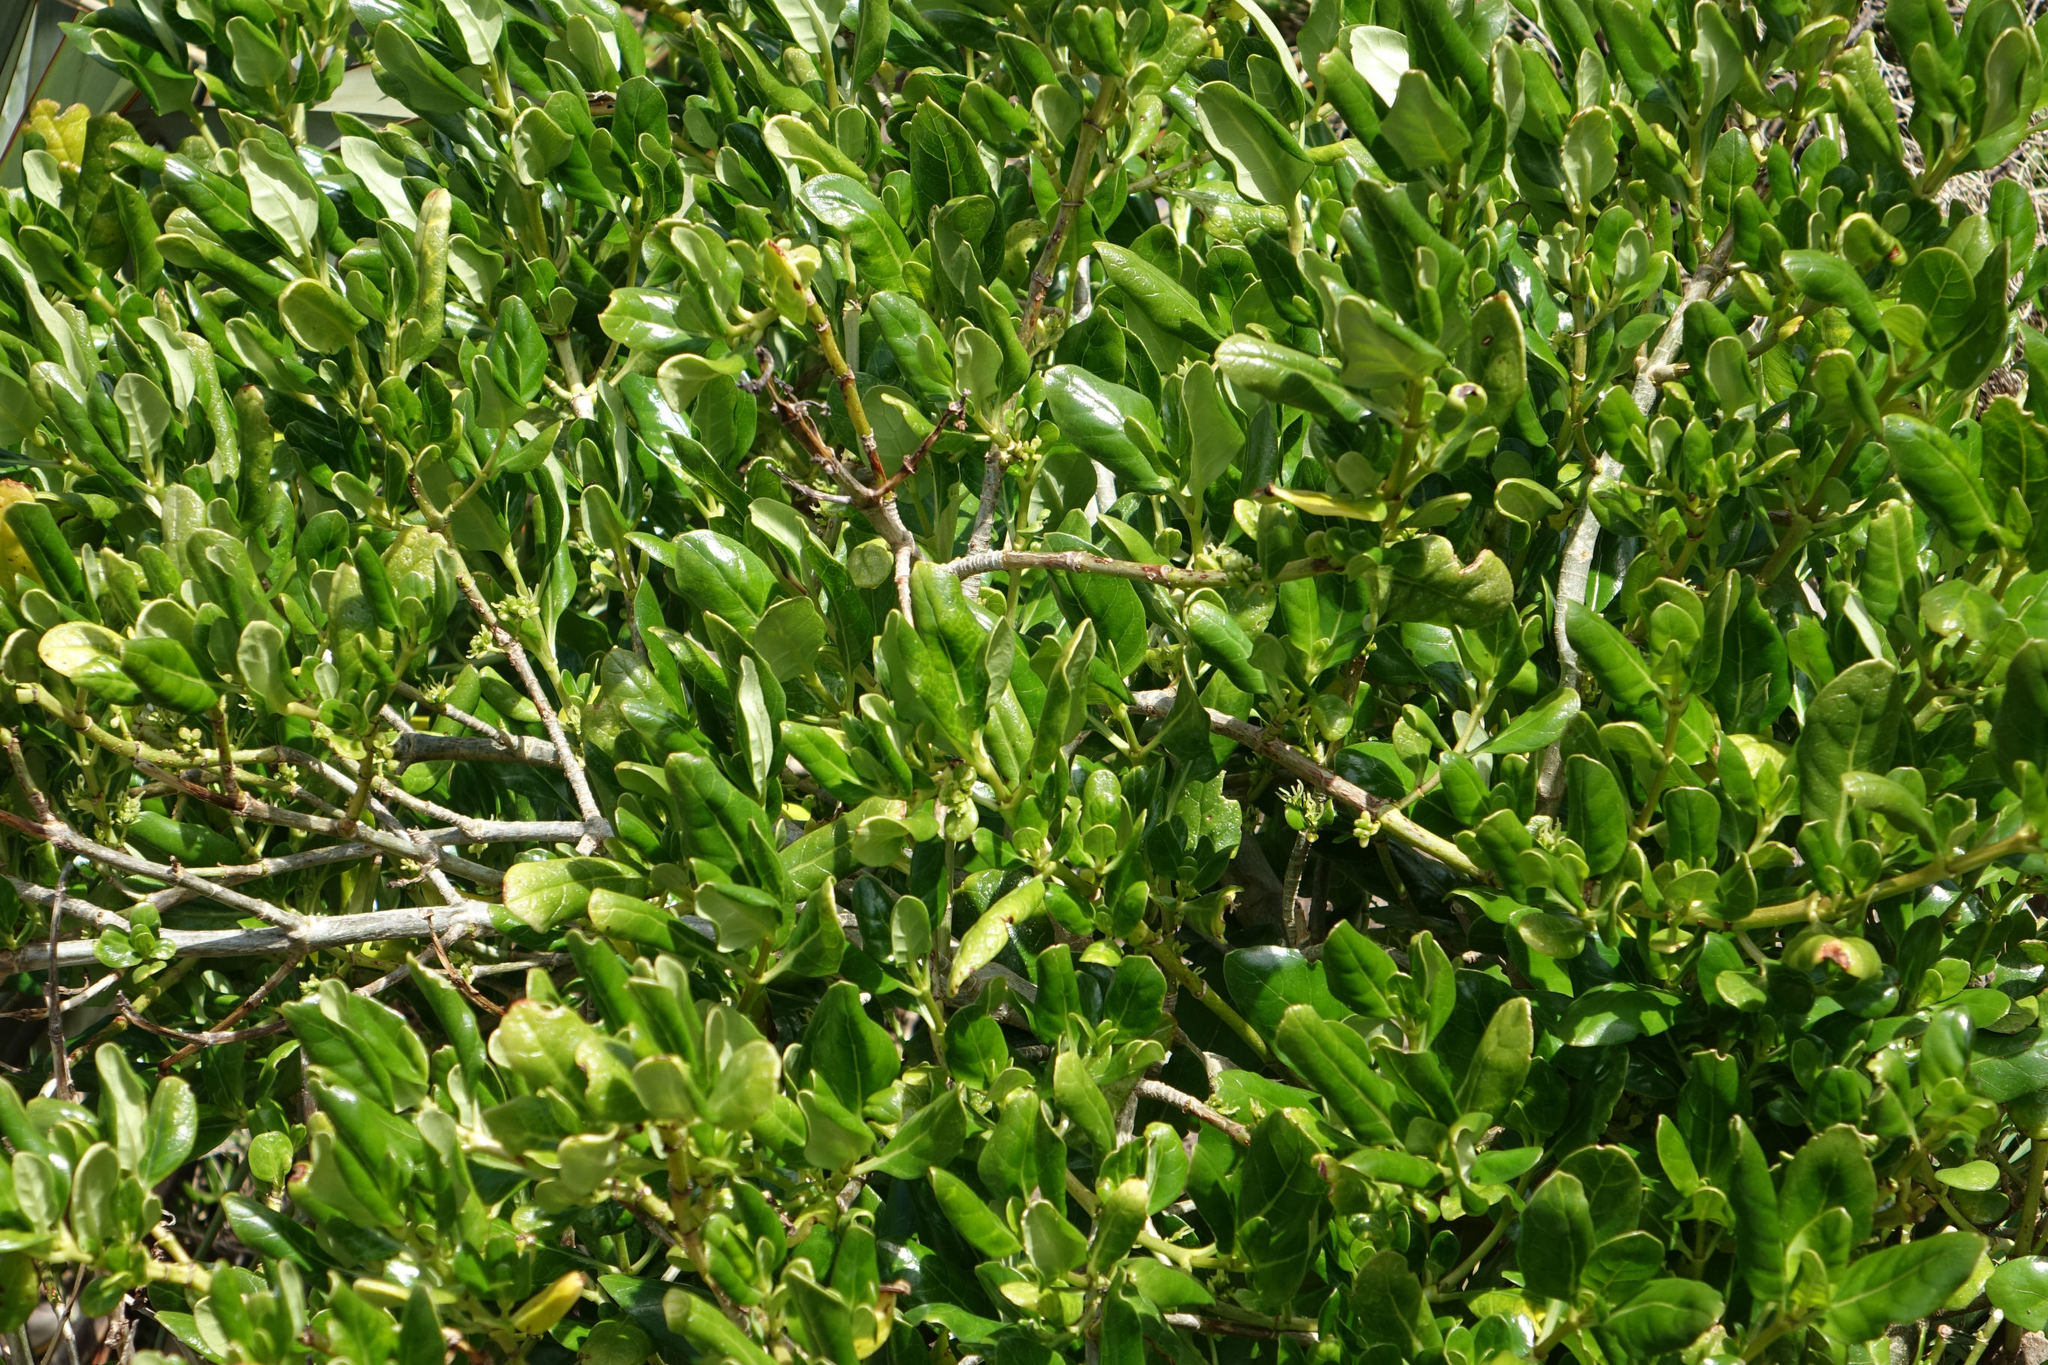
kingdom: Plantae
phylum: Tracheophyta
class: Magnoliopsida
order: Gentianales
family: Rubiaceae
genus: Coprosma
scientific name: Coprosma repens
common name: Tree bedstraw
